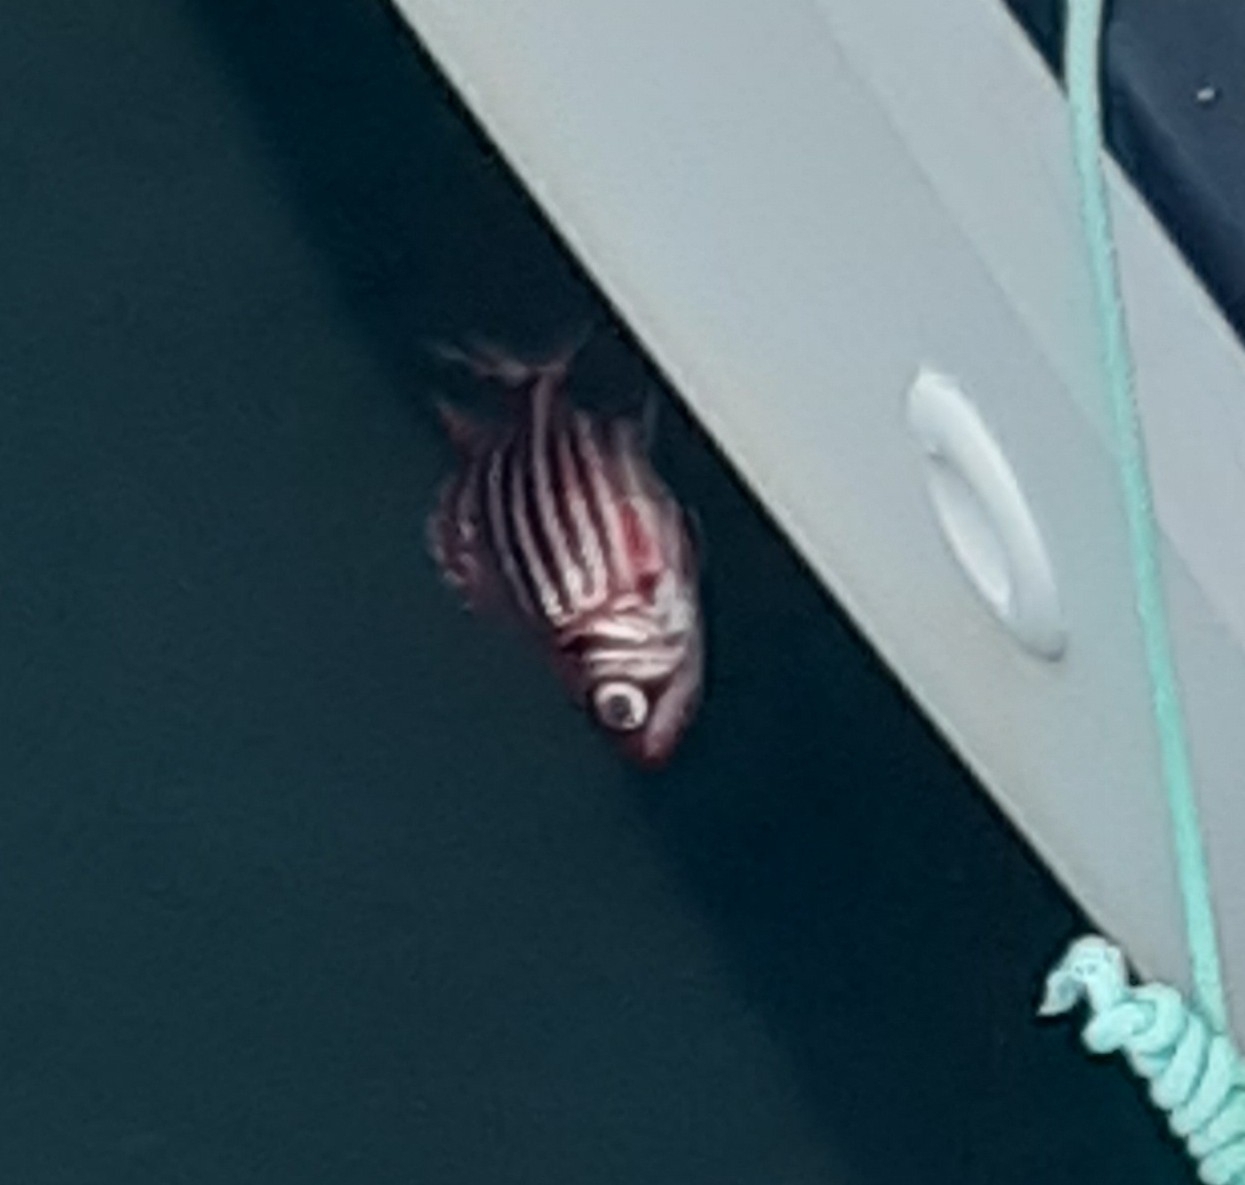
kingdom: Animalia
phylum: Chordata
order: Beryciformes
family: Holocentridae
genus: Sargocentron
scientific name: Sargocentron rubrum
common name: Redcoat
